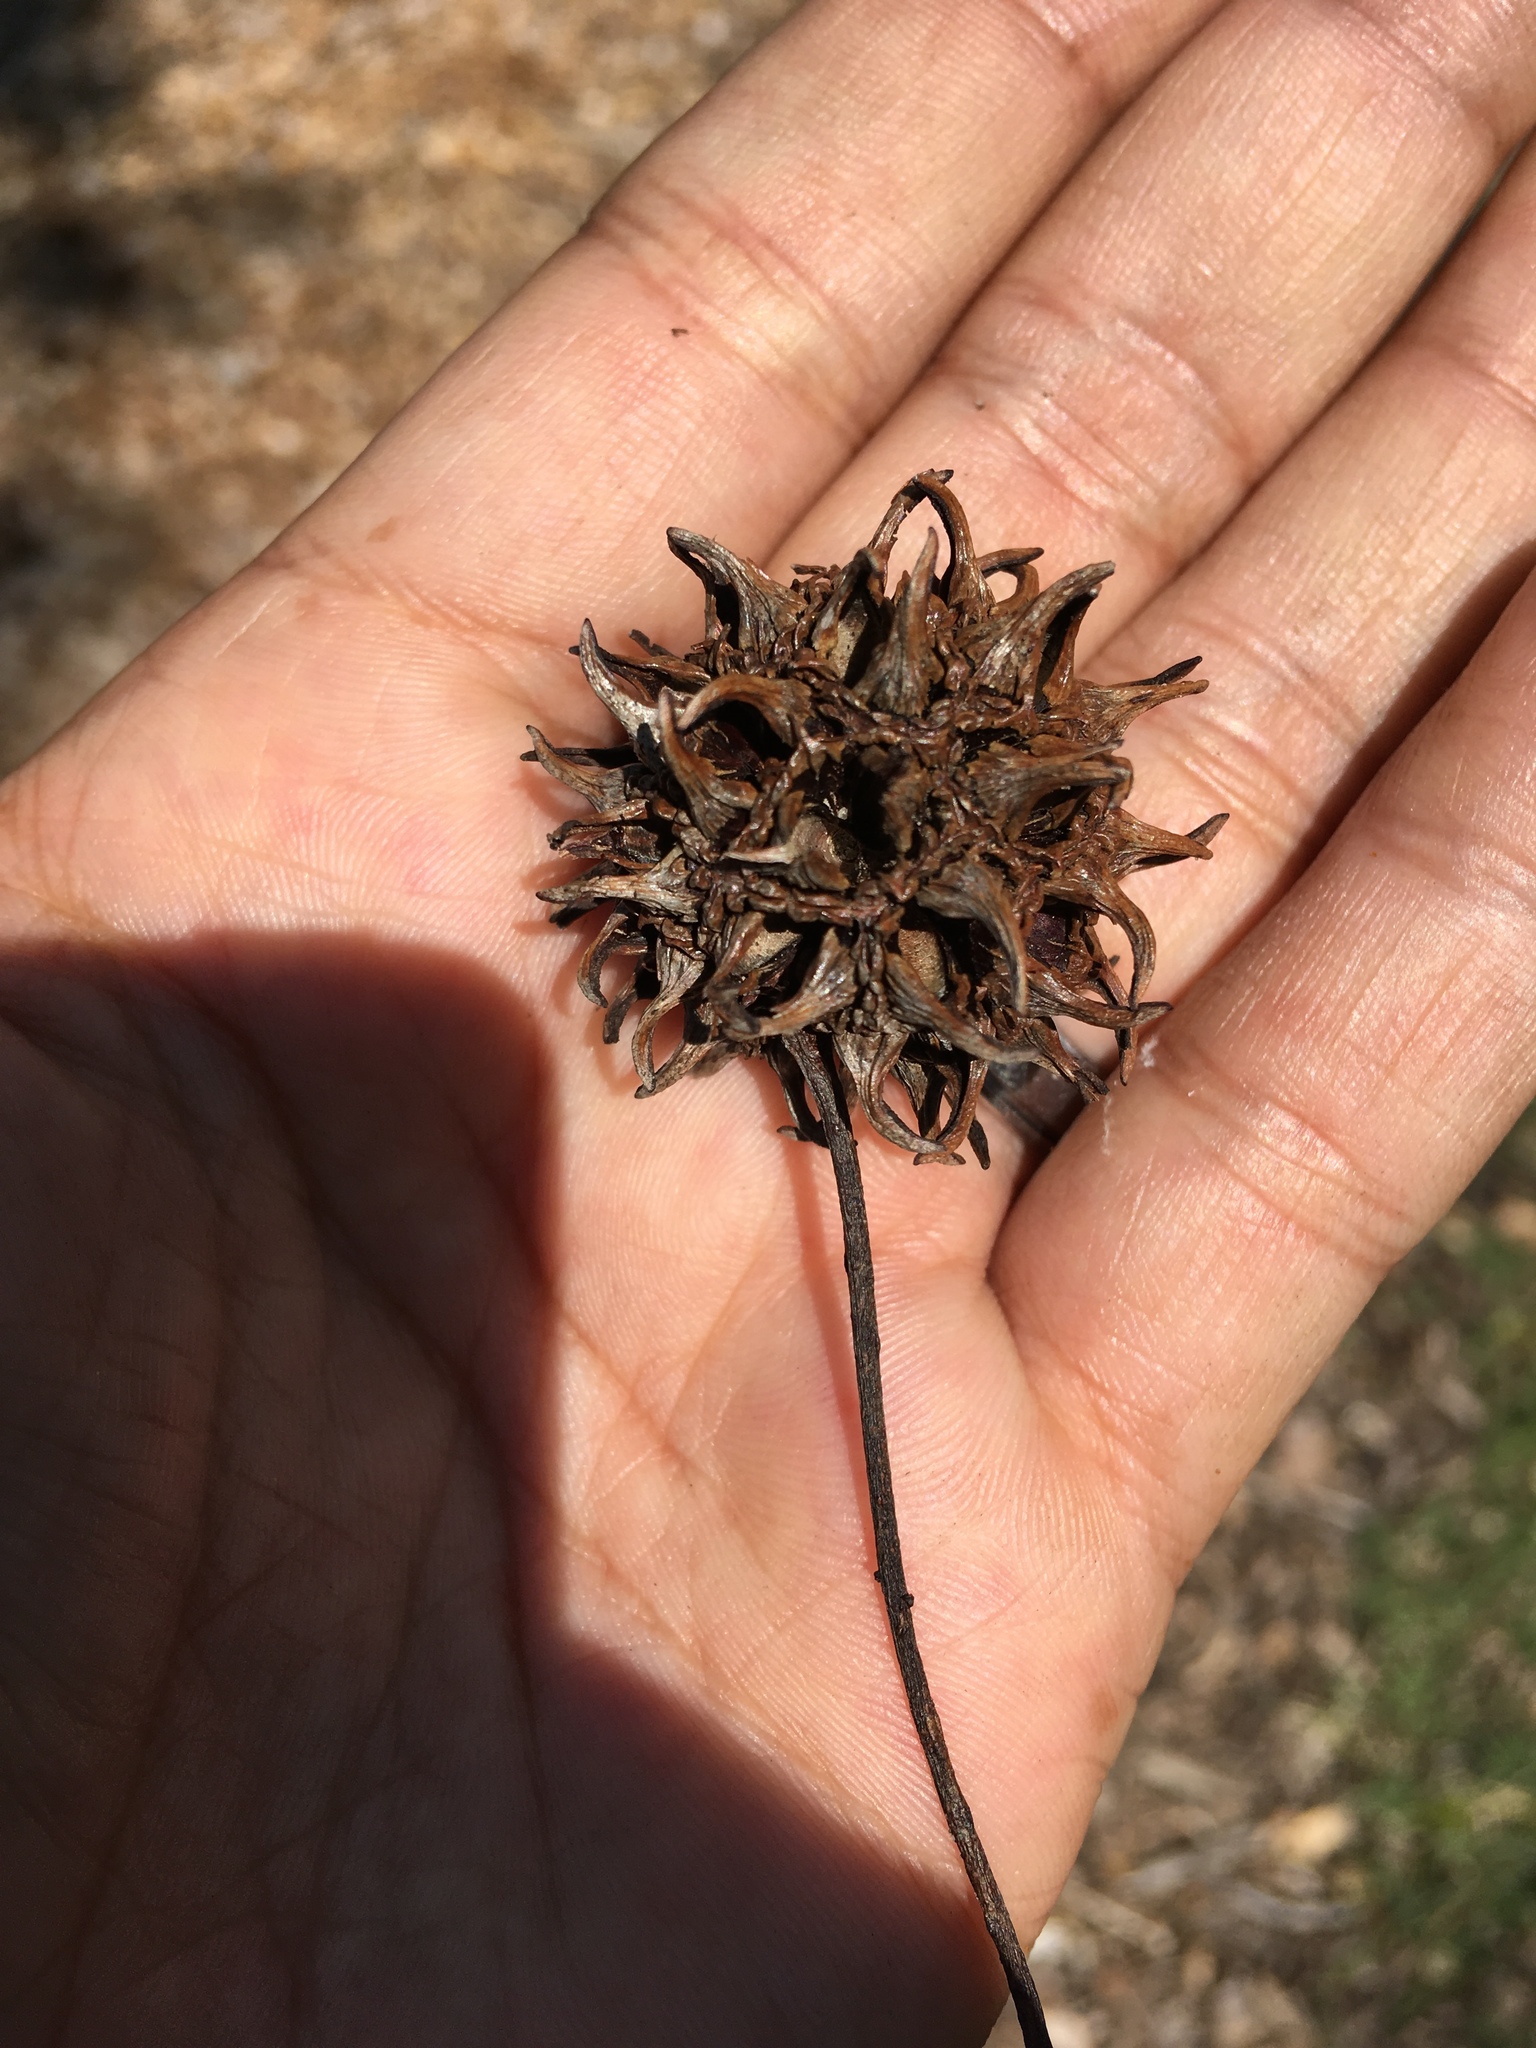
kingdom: Plantae
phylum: Tracheophyta
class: Magnoliopsida
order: Saxifragales
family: Altingiaceae
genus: Liquidambar
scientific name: Liquidambar styraciflua
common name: Sweet gum
